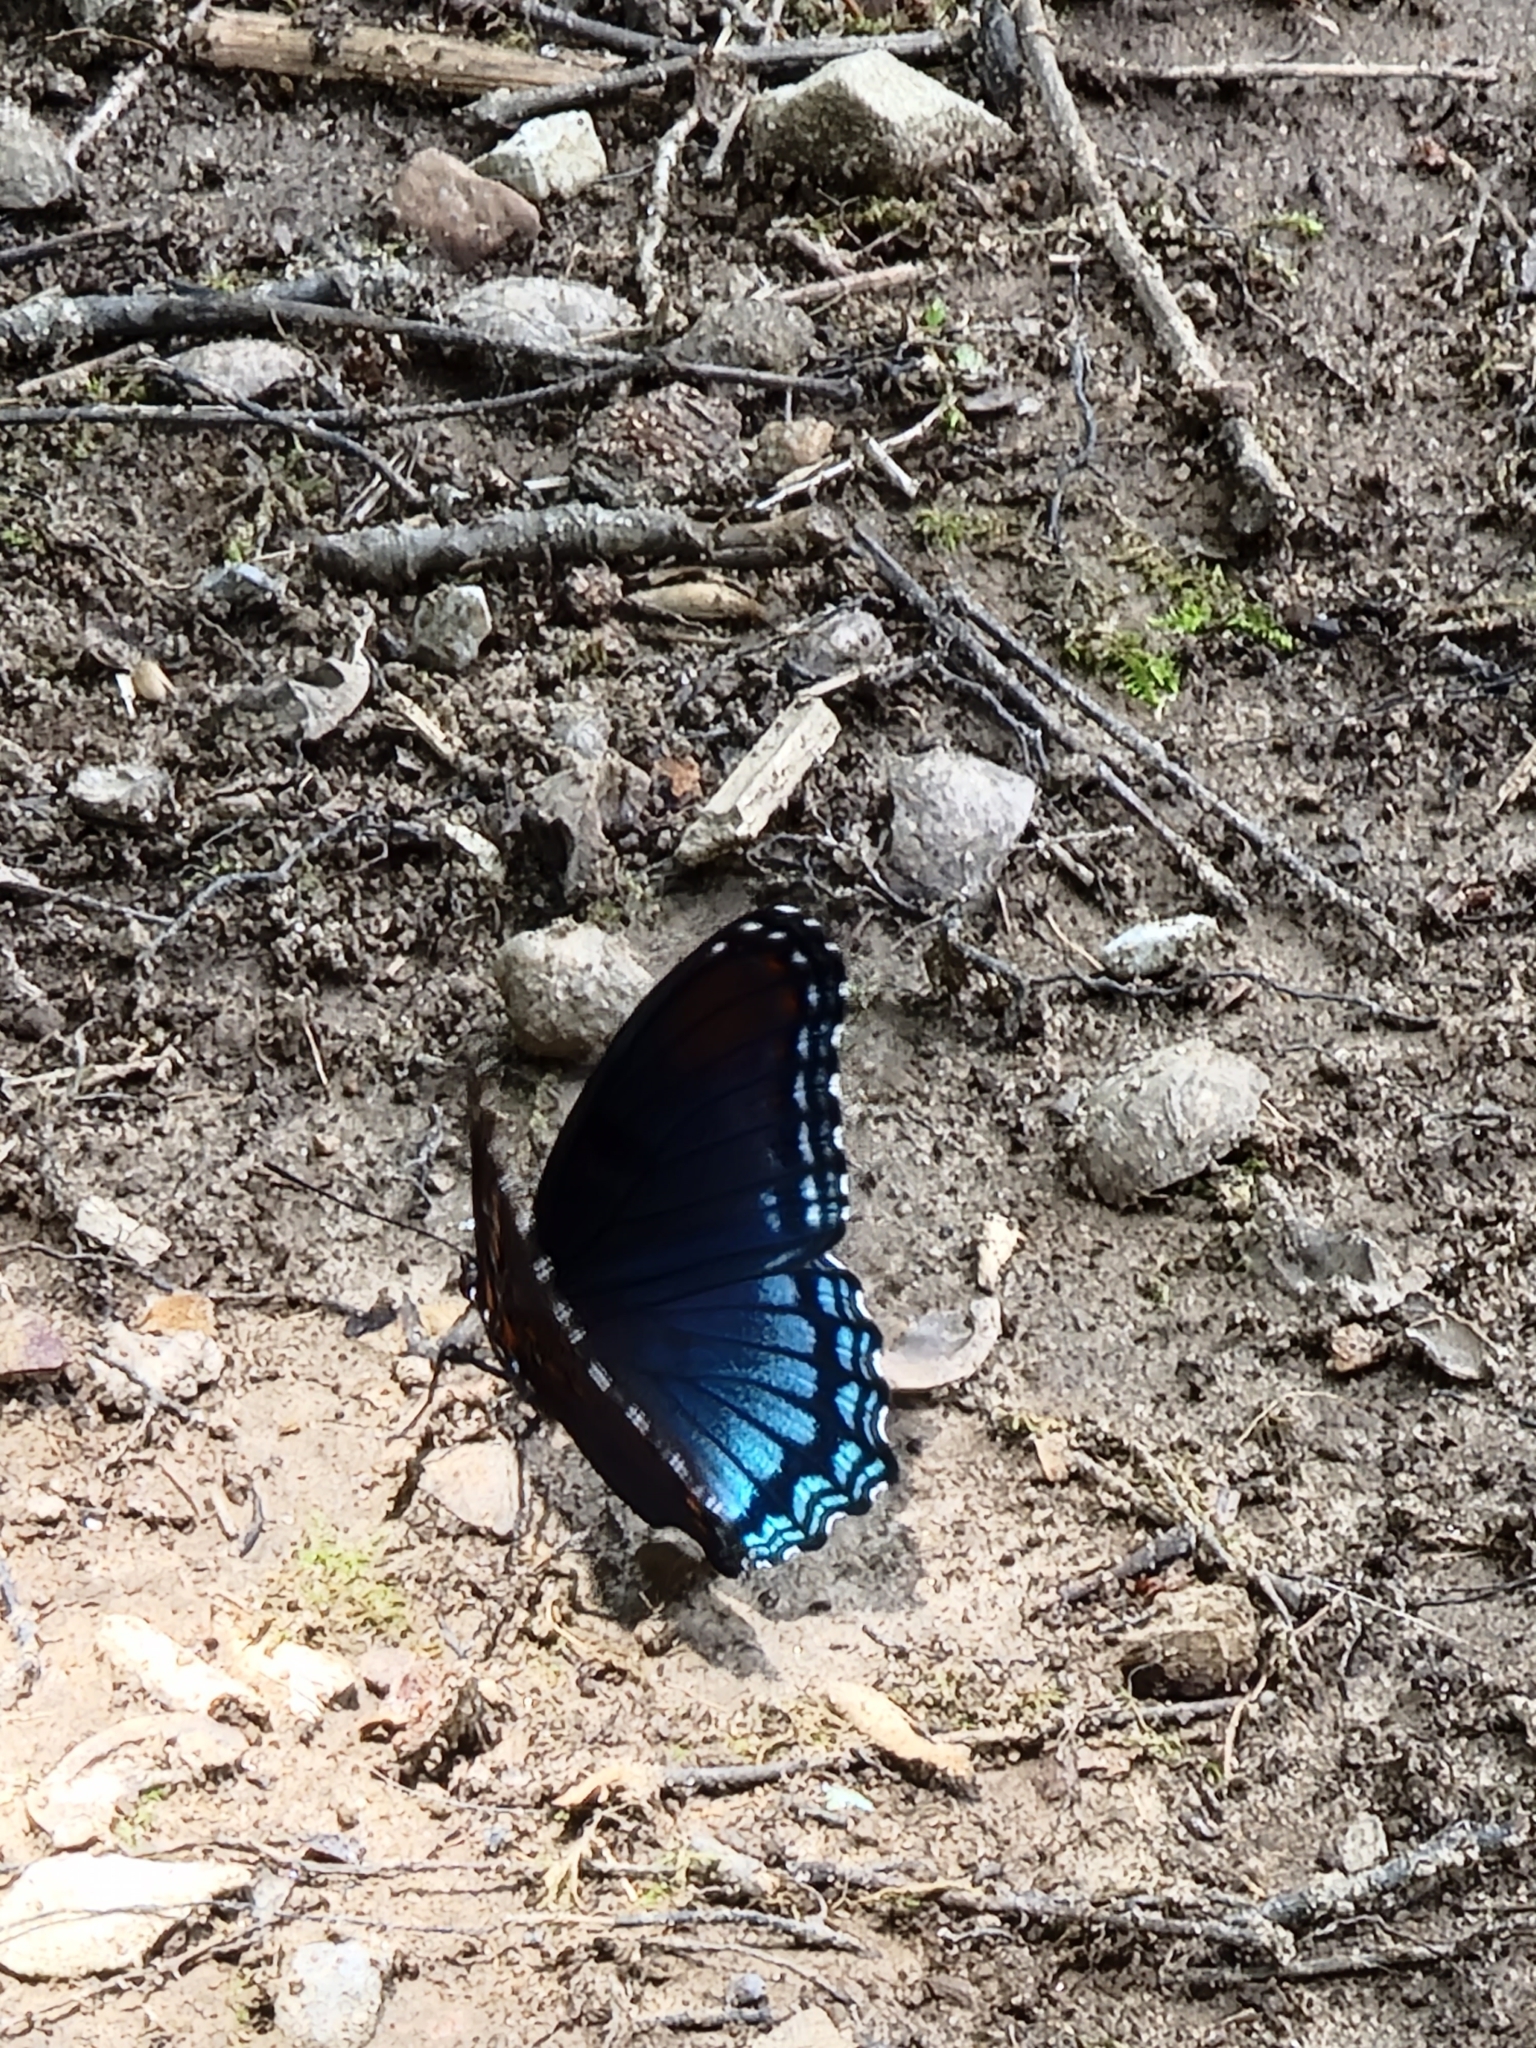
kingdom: Animalia
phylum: Arthropoda
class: Insecta
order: Lepidoptera
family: Nymphalidae
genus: Limenitis
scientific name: Limenitis arthemis
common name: Red-spotted admiral
